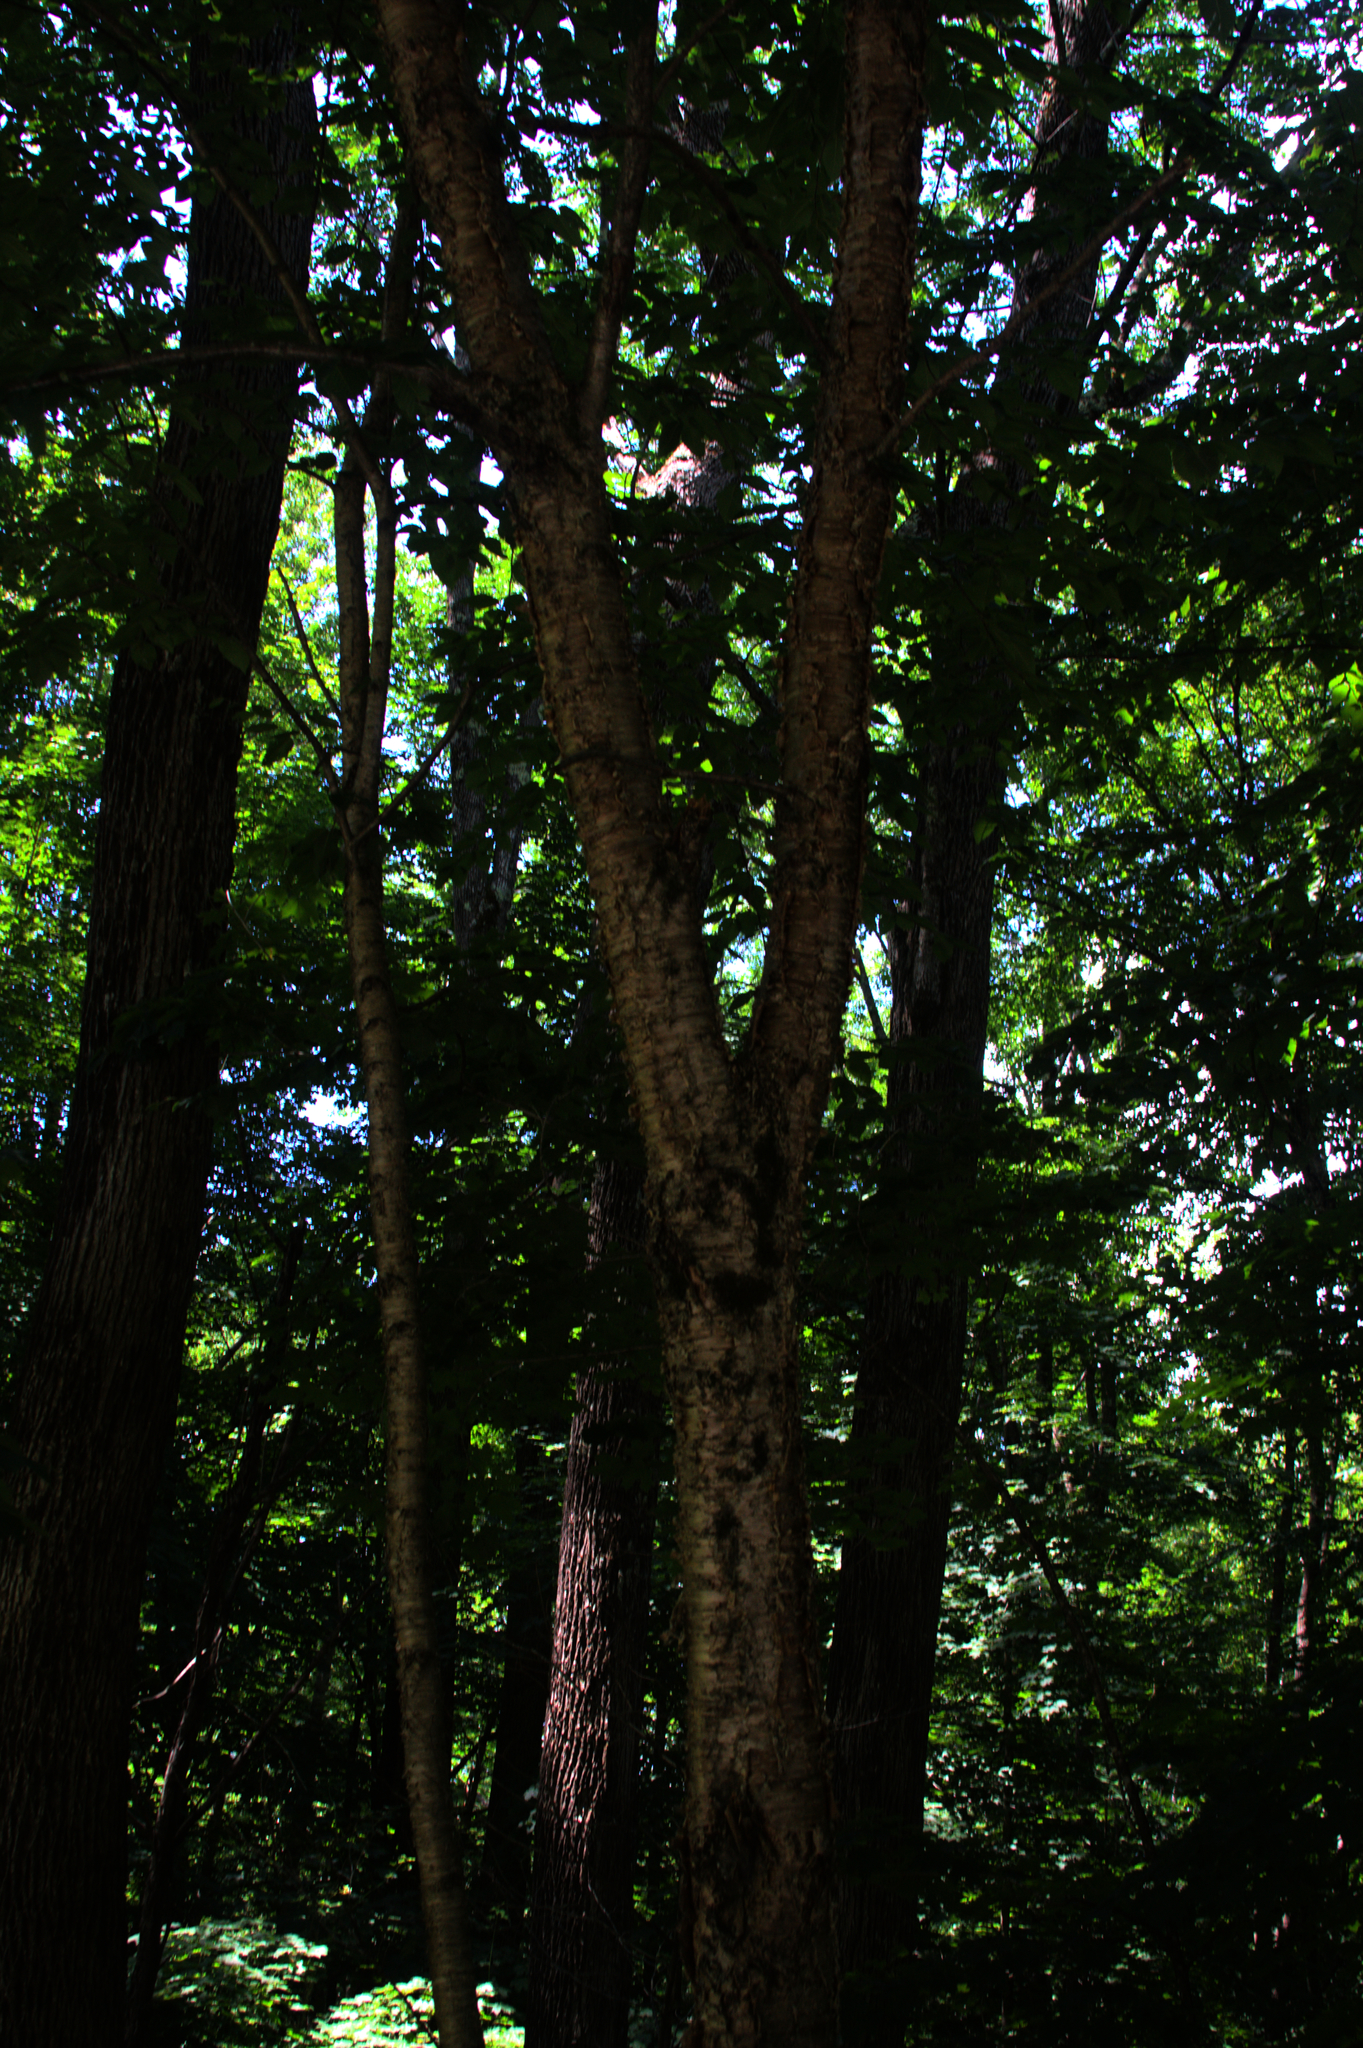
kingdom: Plantae
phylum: Tracheophyta
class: Magnoliopsida
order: Fagales
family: Betulaceae
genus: Betula
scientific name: Betula alleghaniensis
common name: Yellow birch
